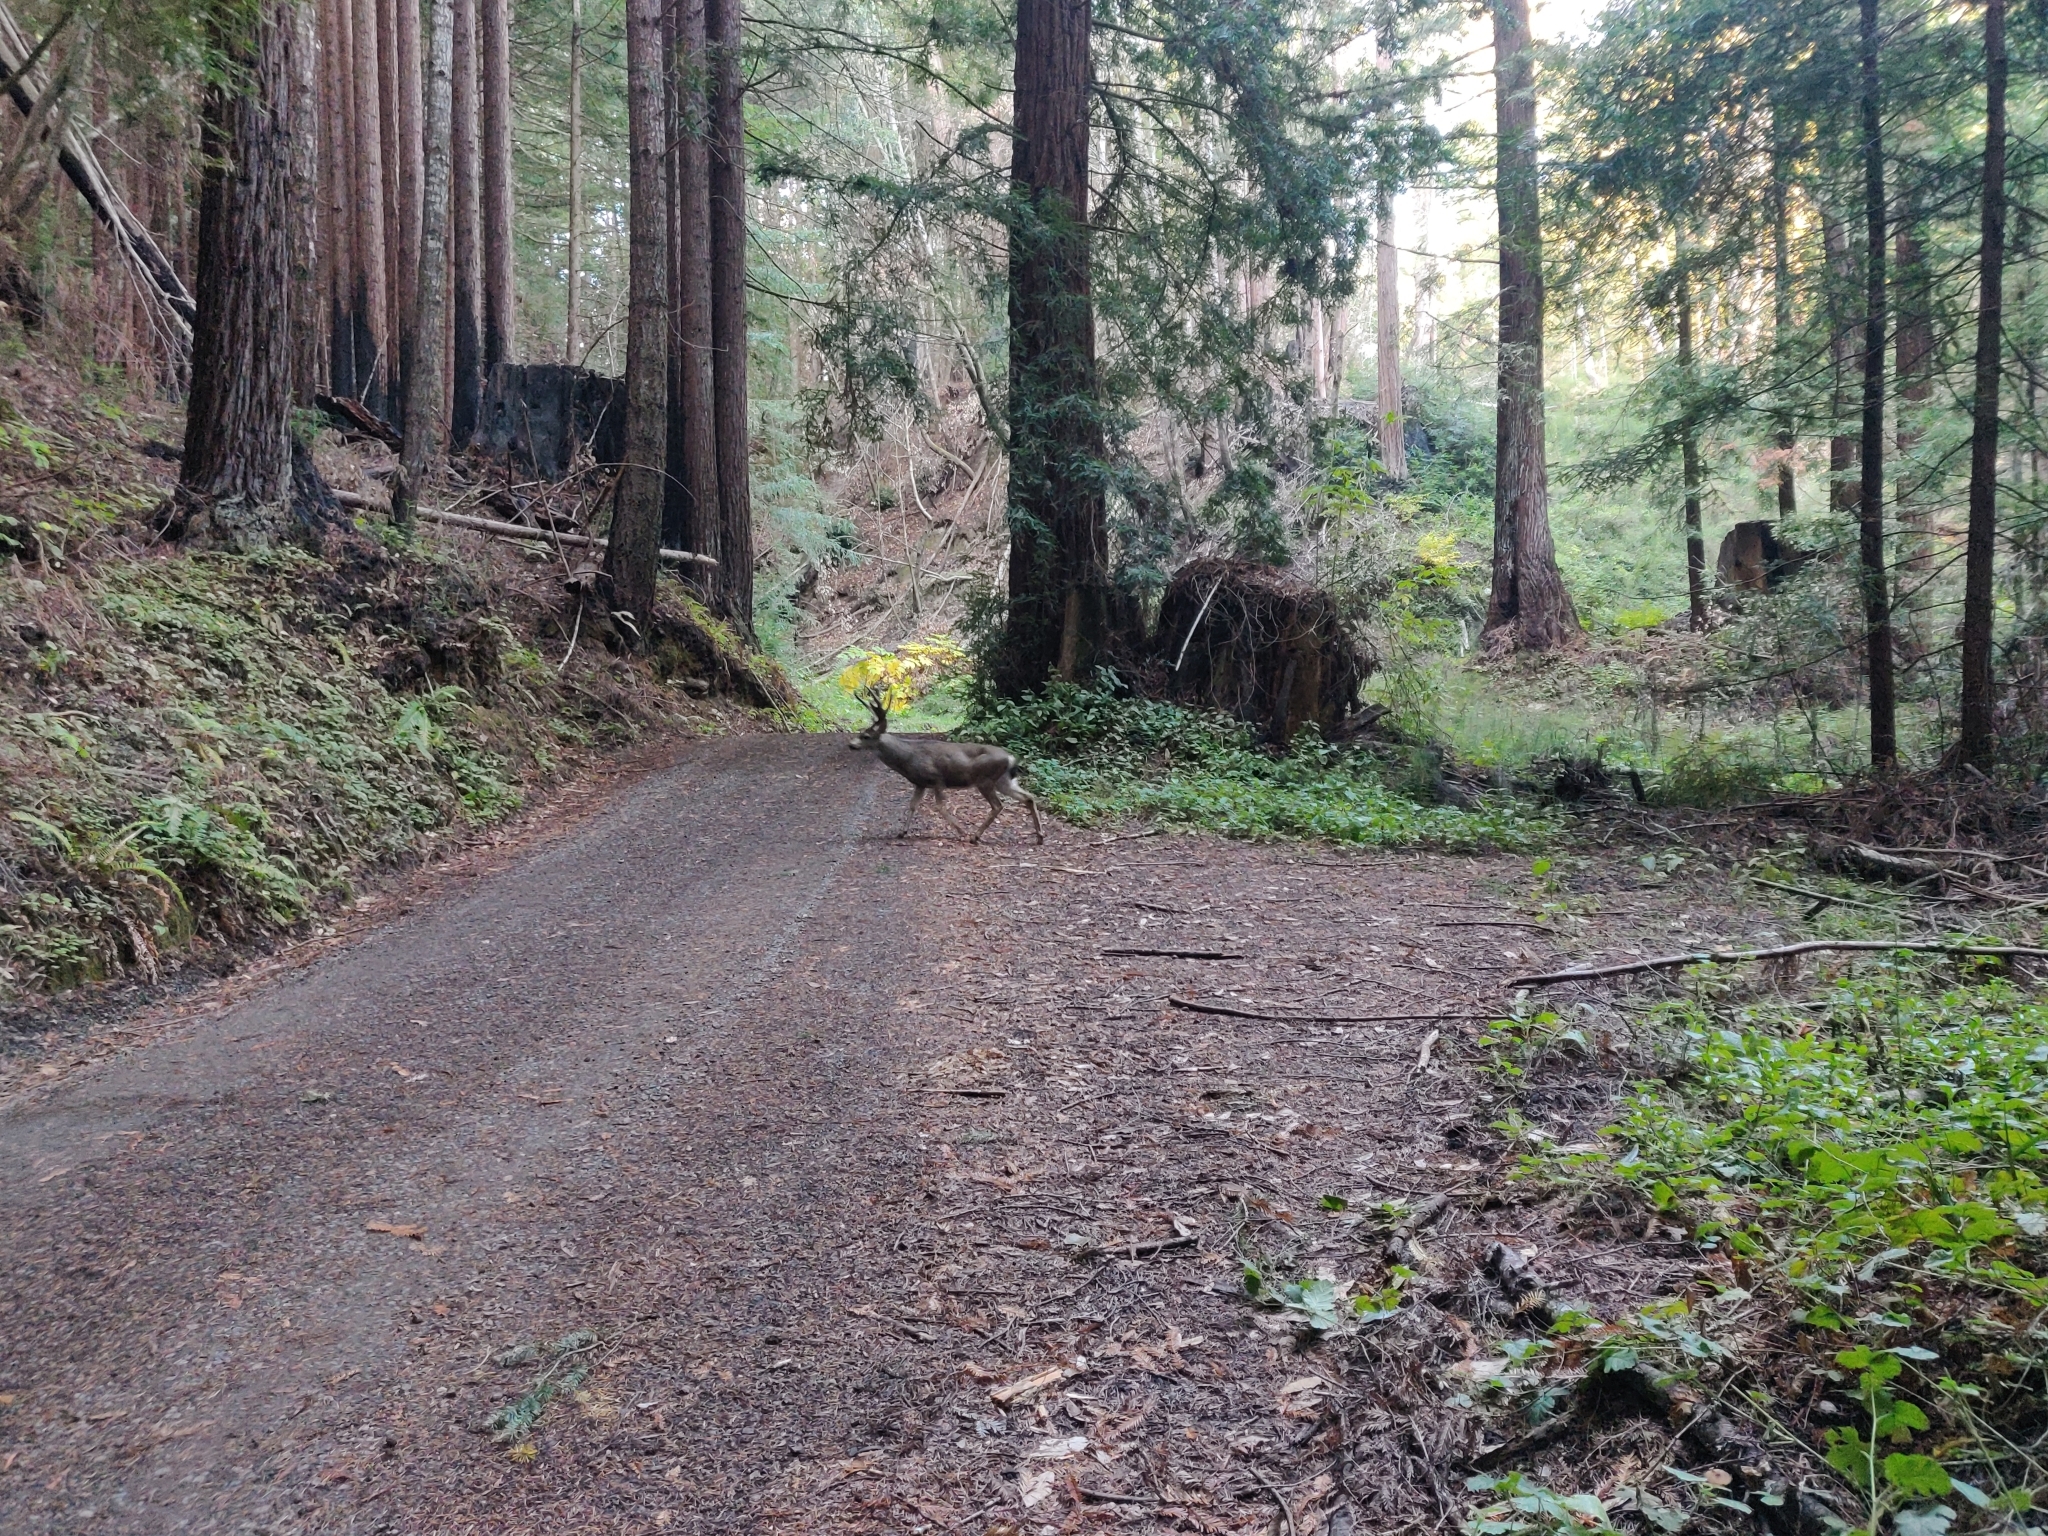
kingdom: Animalia
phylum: Chordata
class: Mammalia
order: Artiodactyla
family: Cervidae
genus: Odocoileus
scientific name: Odocoileus hemionus
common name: Mule deer
